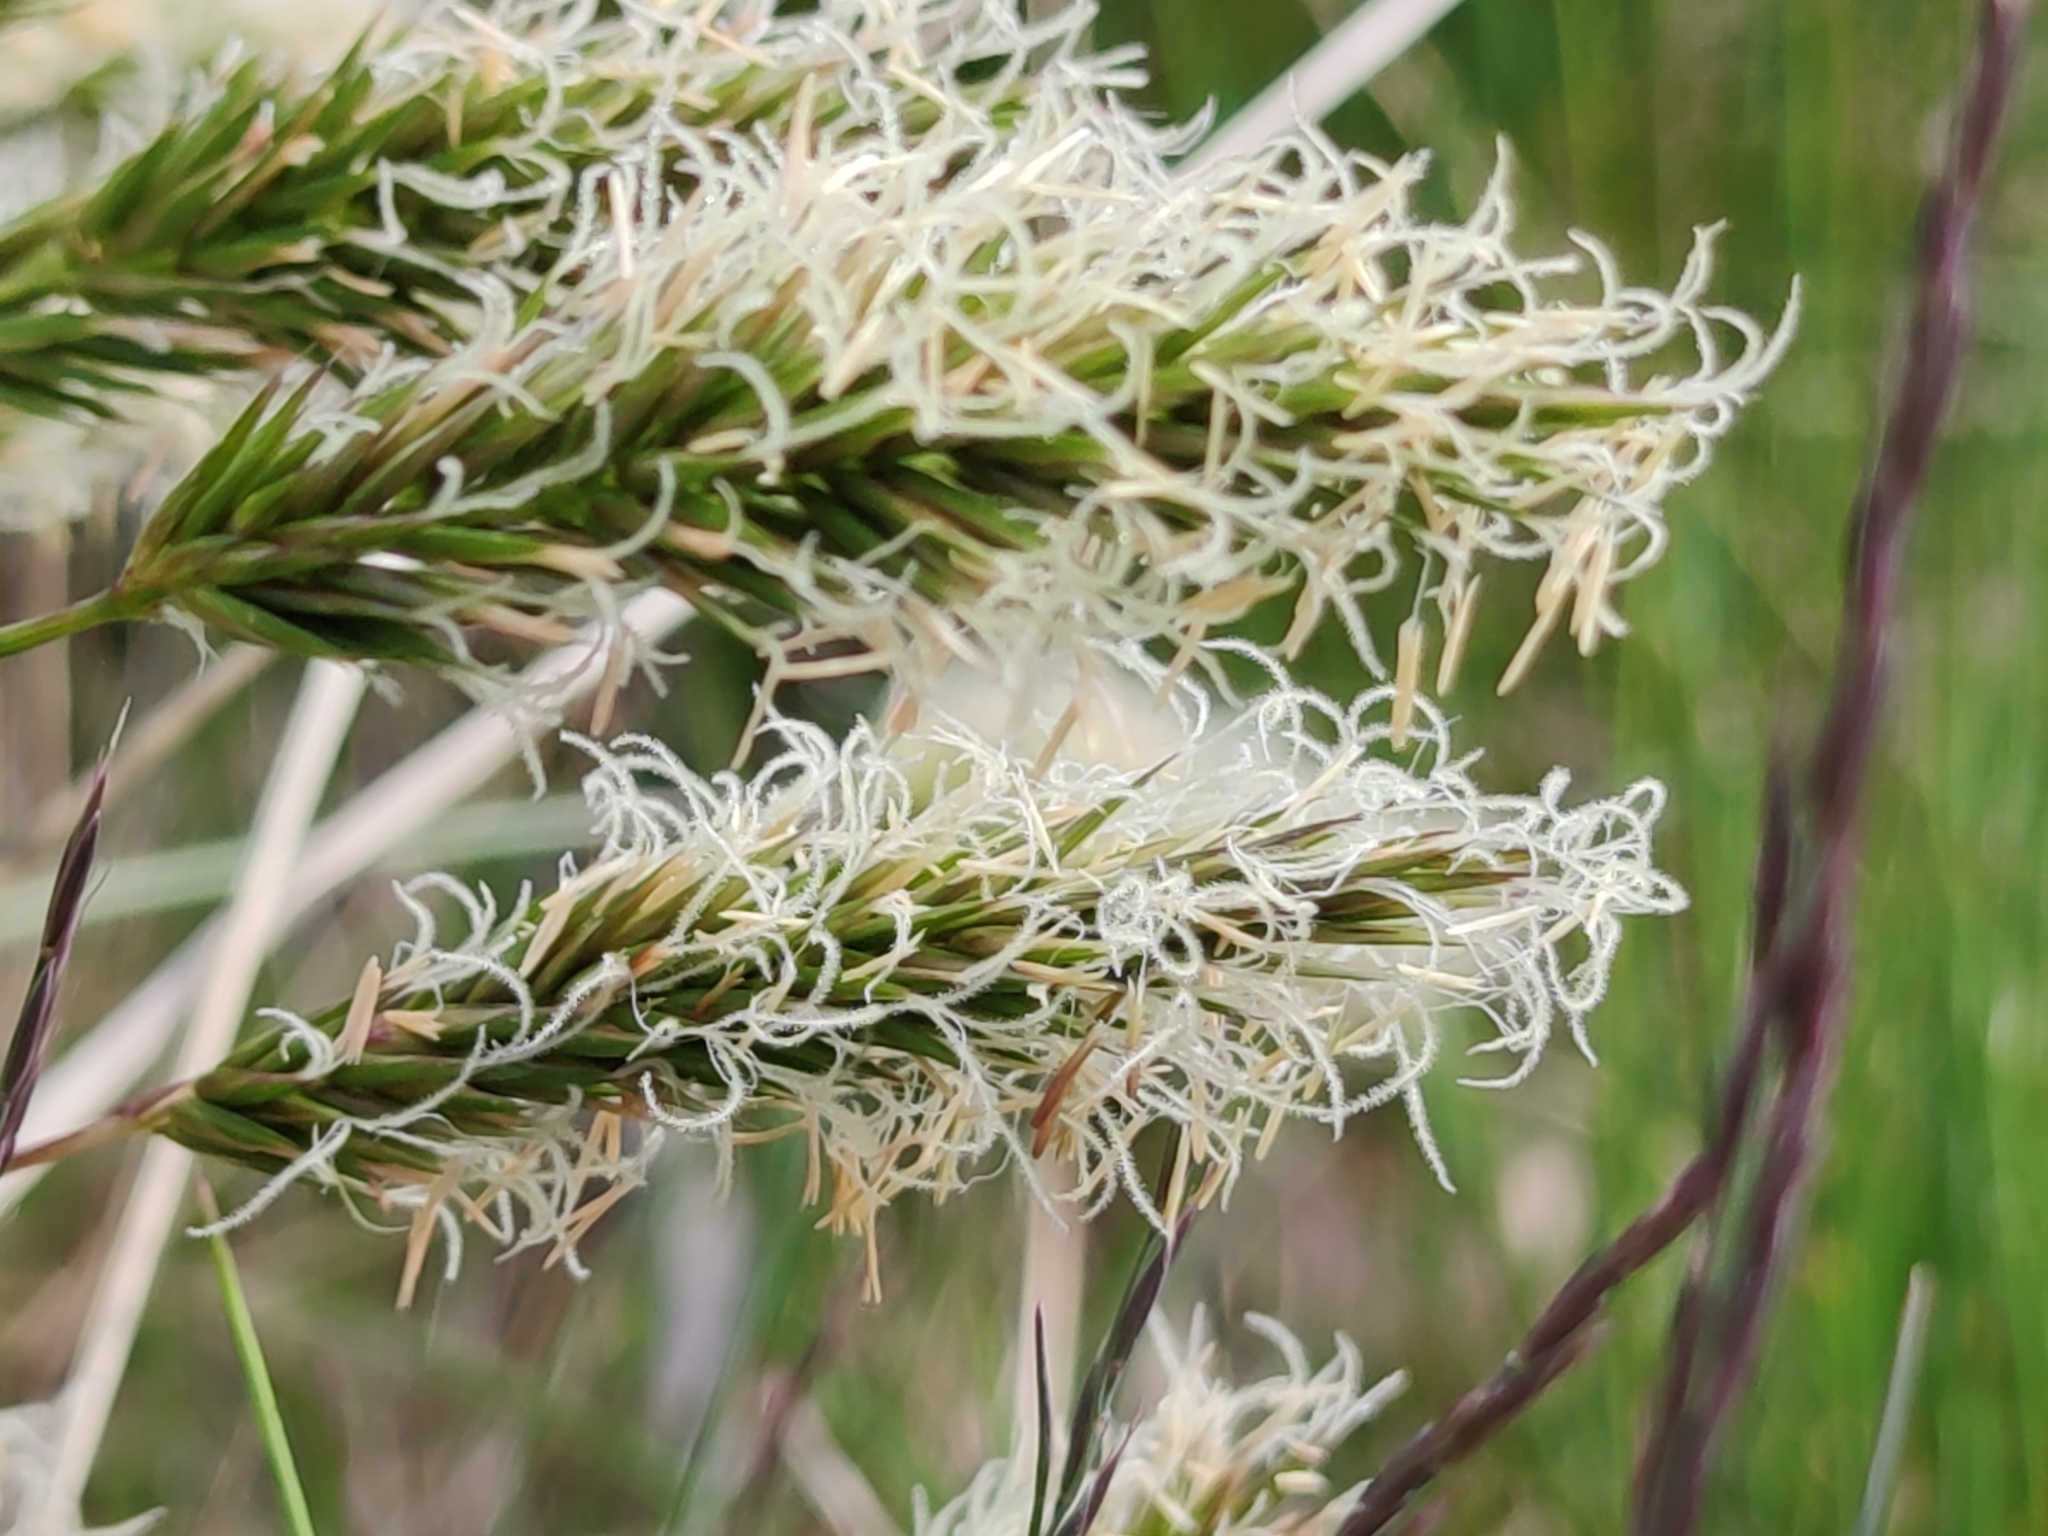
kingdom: Plantae
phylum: Tracheophyta
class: Liliopsida
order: Poales
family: Poaceae
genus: Anthoxanthum
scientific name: Anthoxanthum odoratum
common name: Sweet vernalgrass
